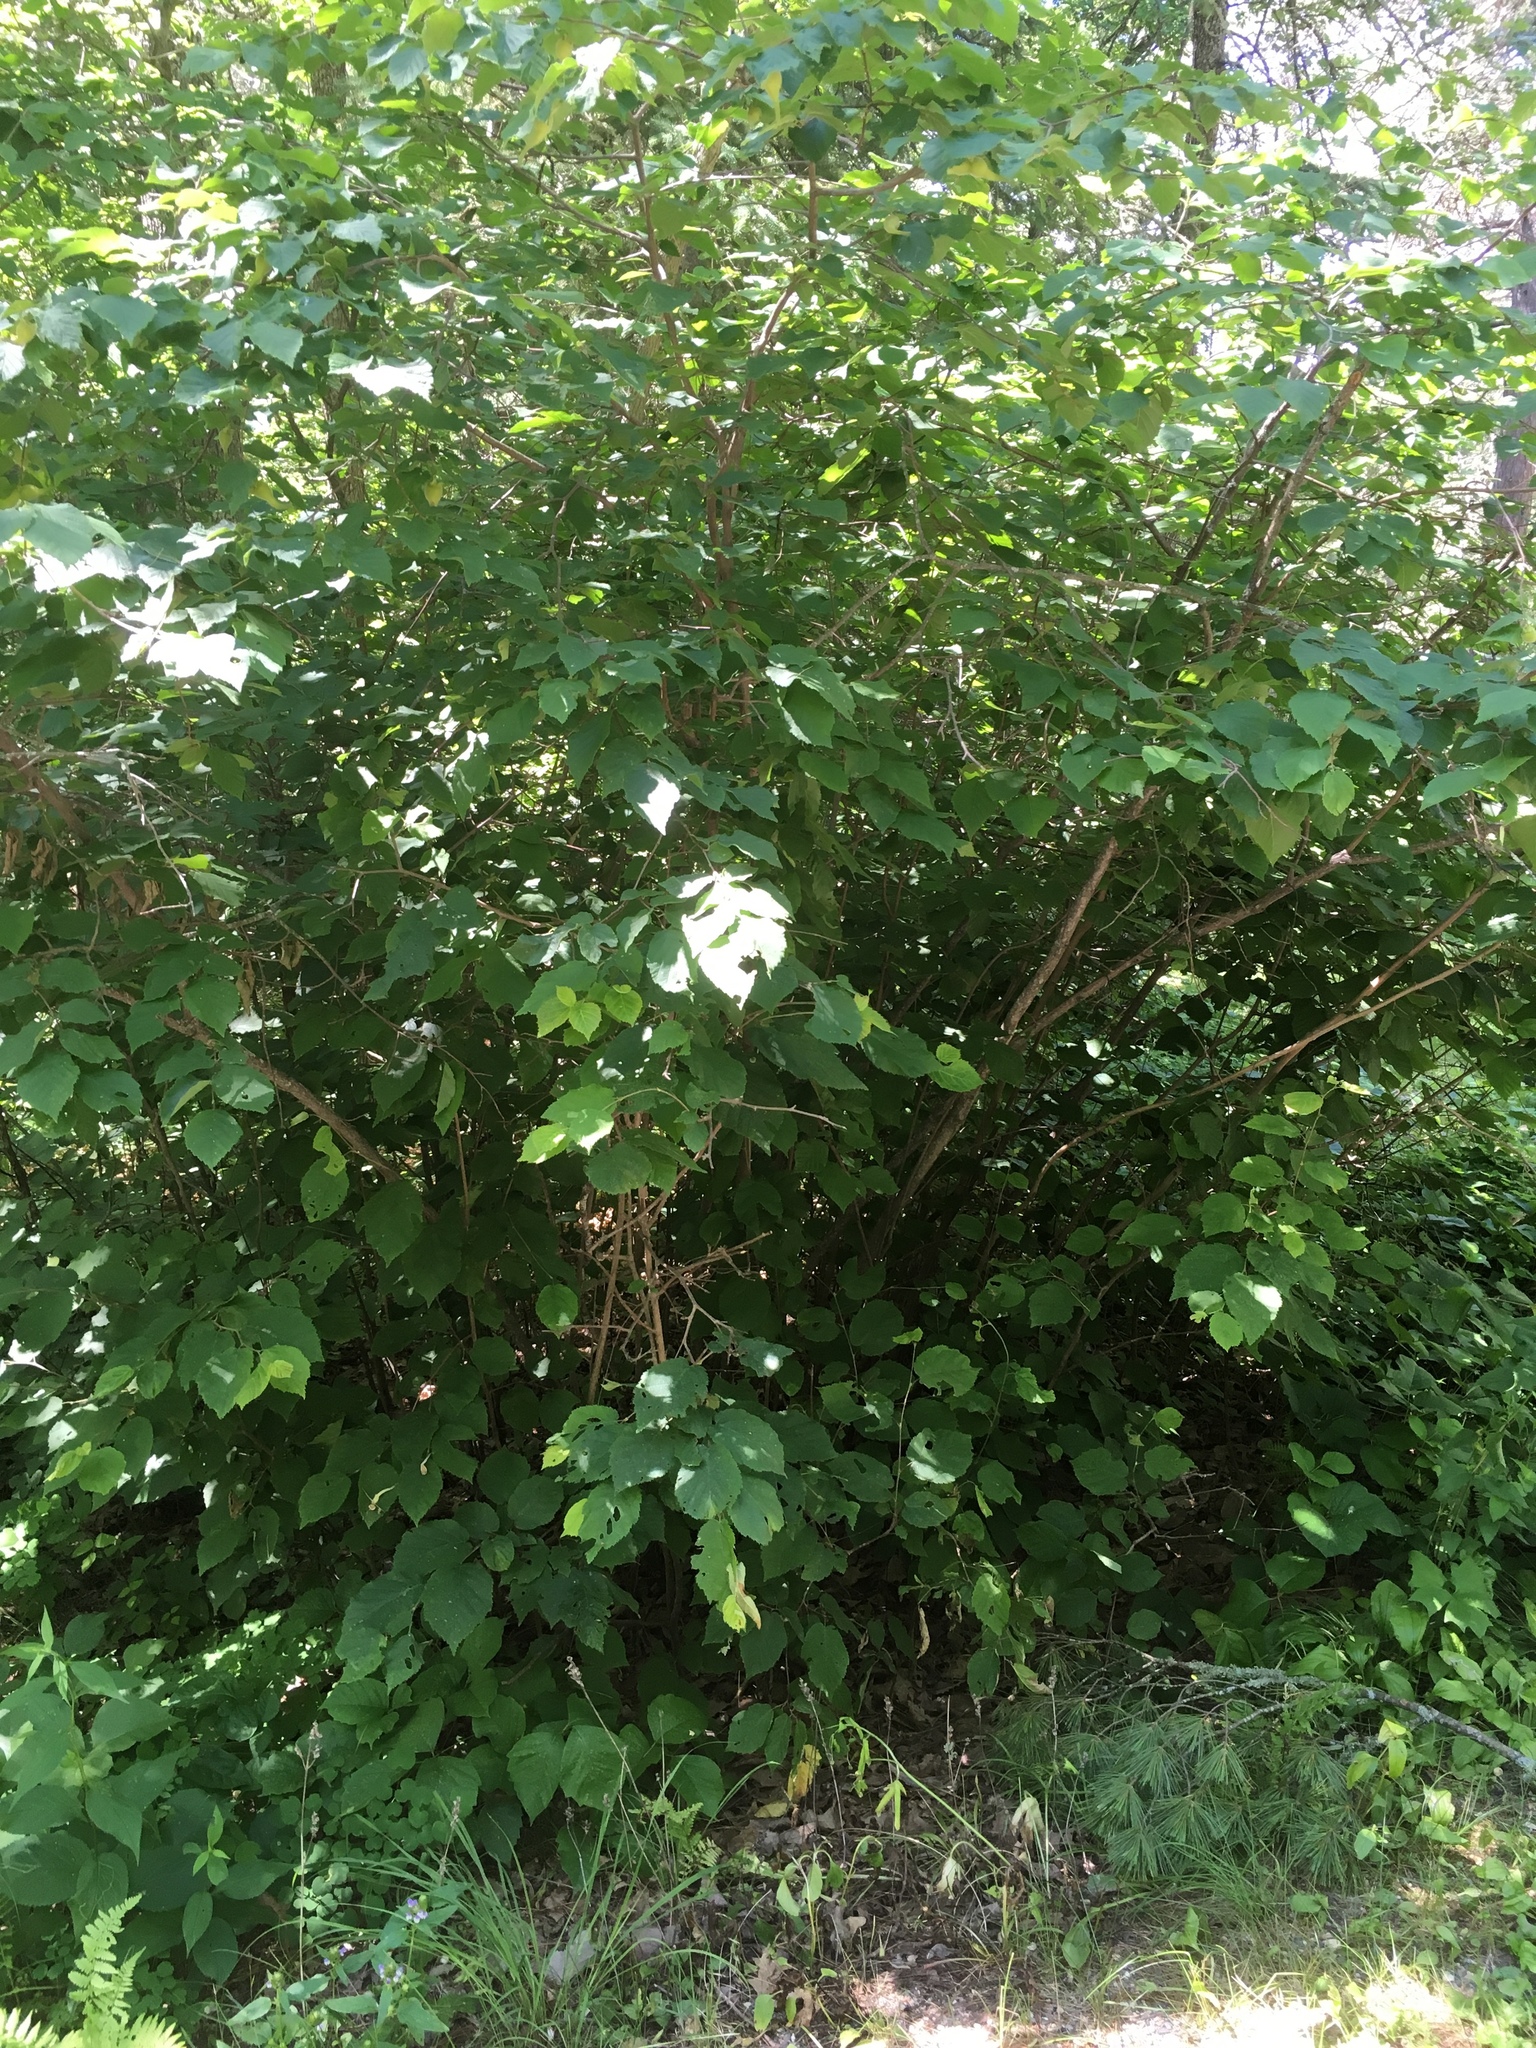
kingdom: Plantae
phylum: Tracheophyta
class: Magnoliopsida
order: Fagales
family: Betulaceae
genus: Corylus
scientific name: Corylus cornuta
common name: Beaked hazel
